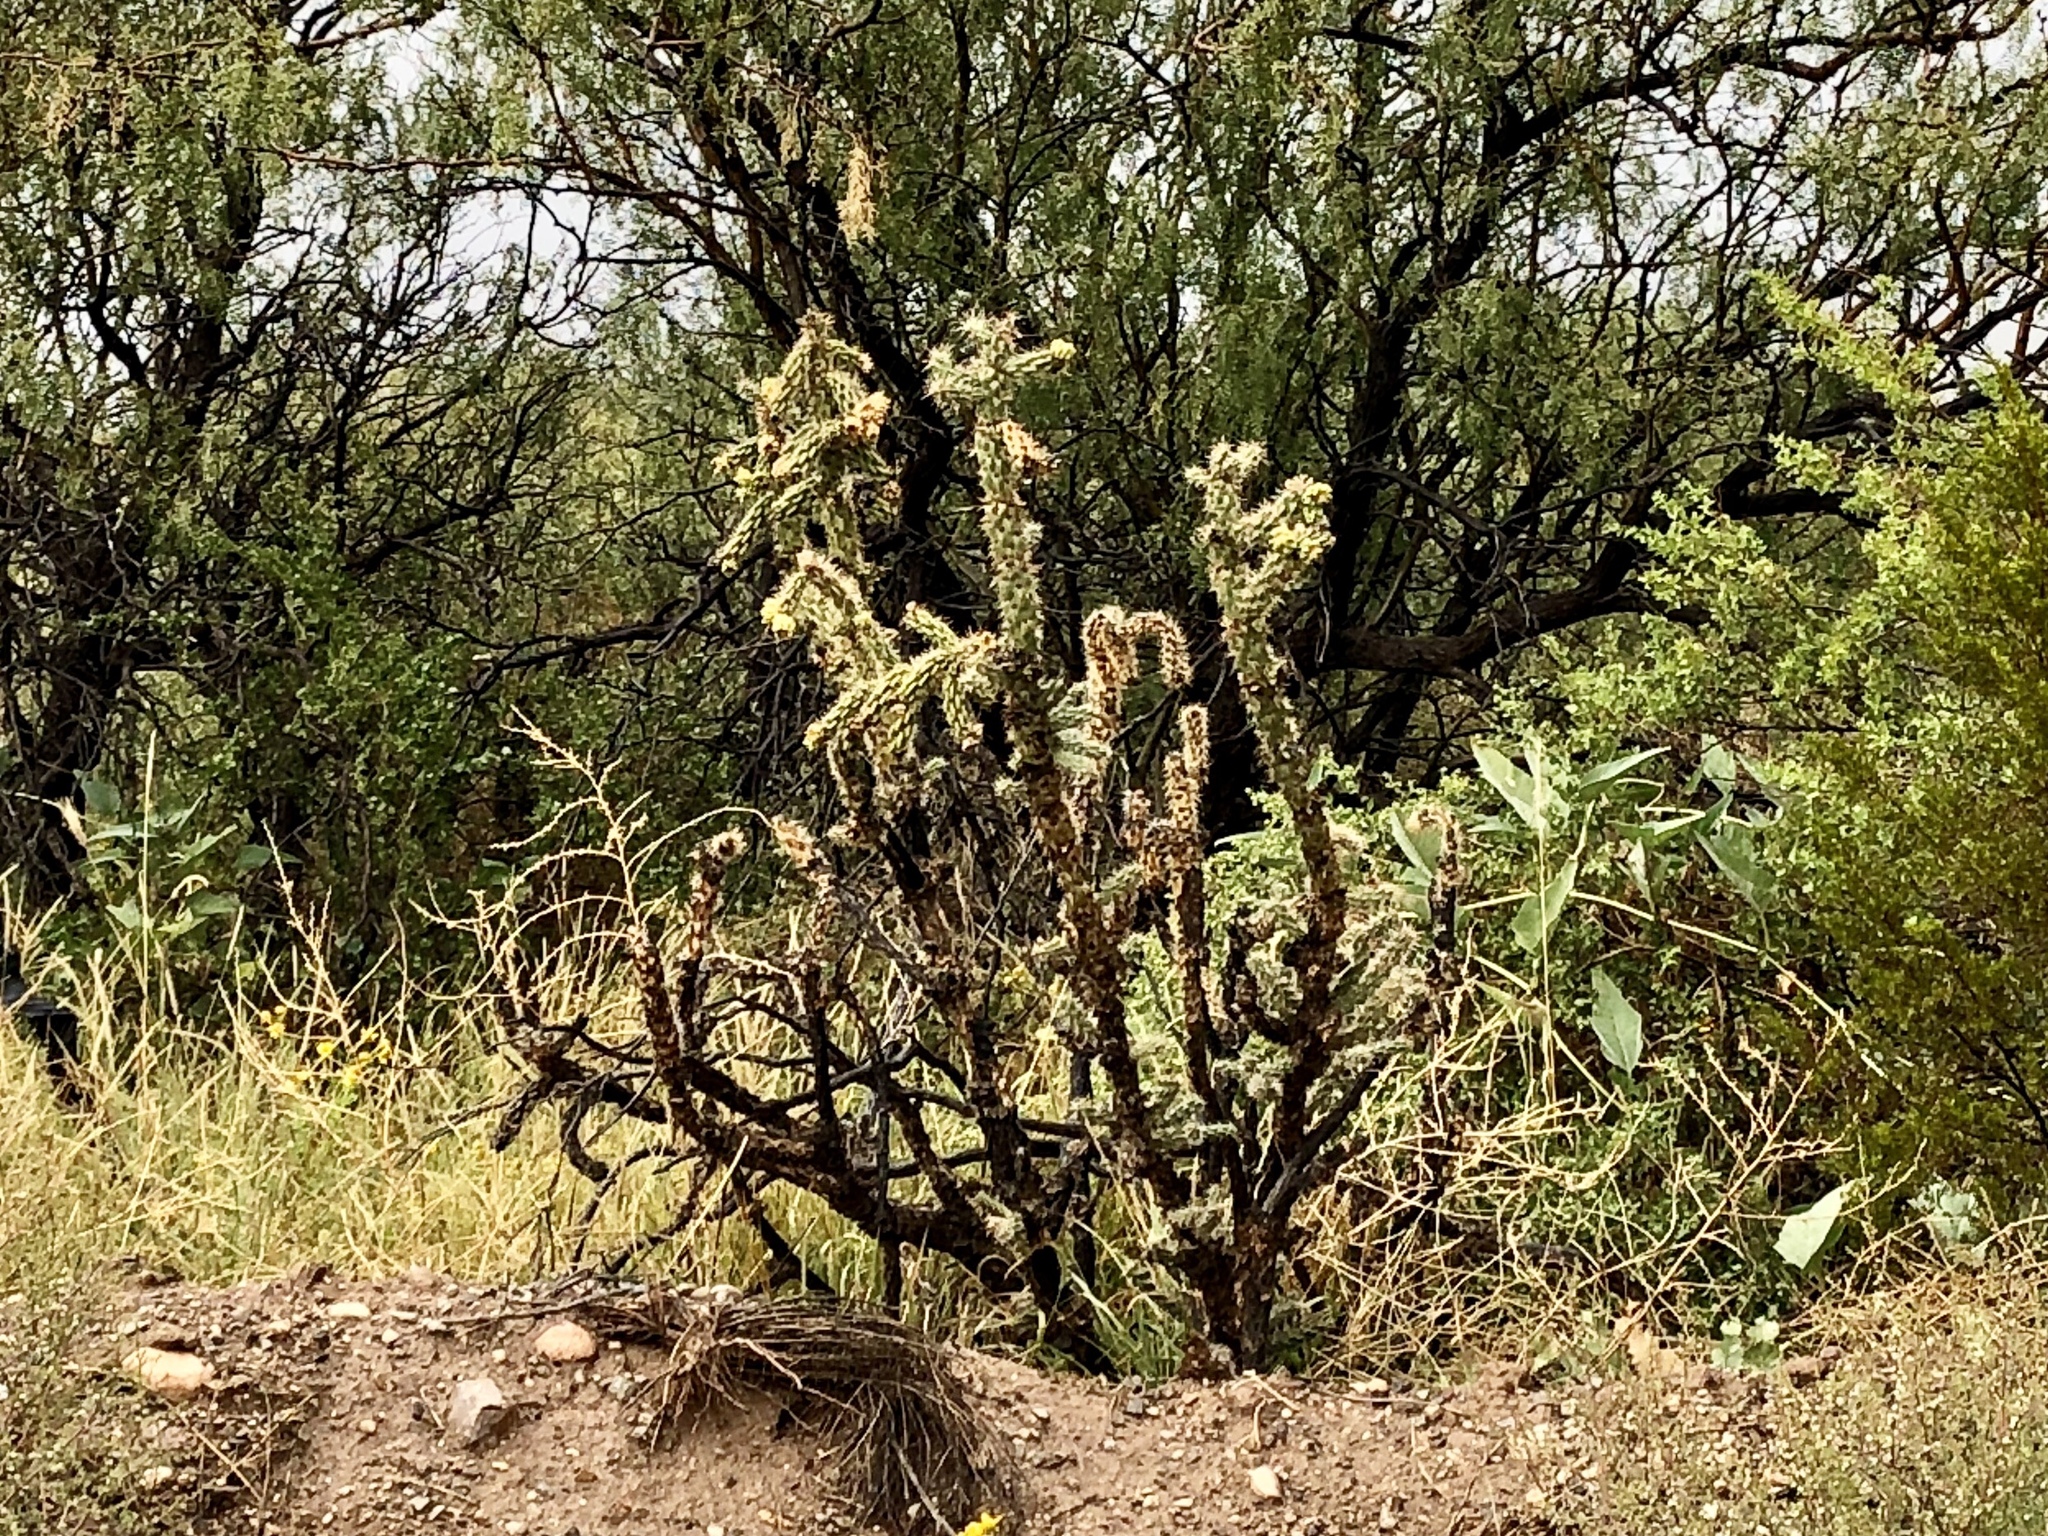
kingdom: Plantae
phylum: Tracheophyta
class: Magnoliopsida
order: Caryophyllales
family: Cactaceae
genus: Cylindropuntia
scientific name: Cylindropuntia imbricata
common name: Candelabrum cactus
